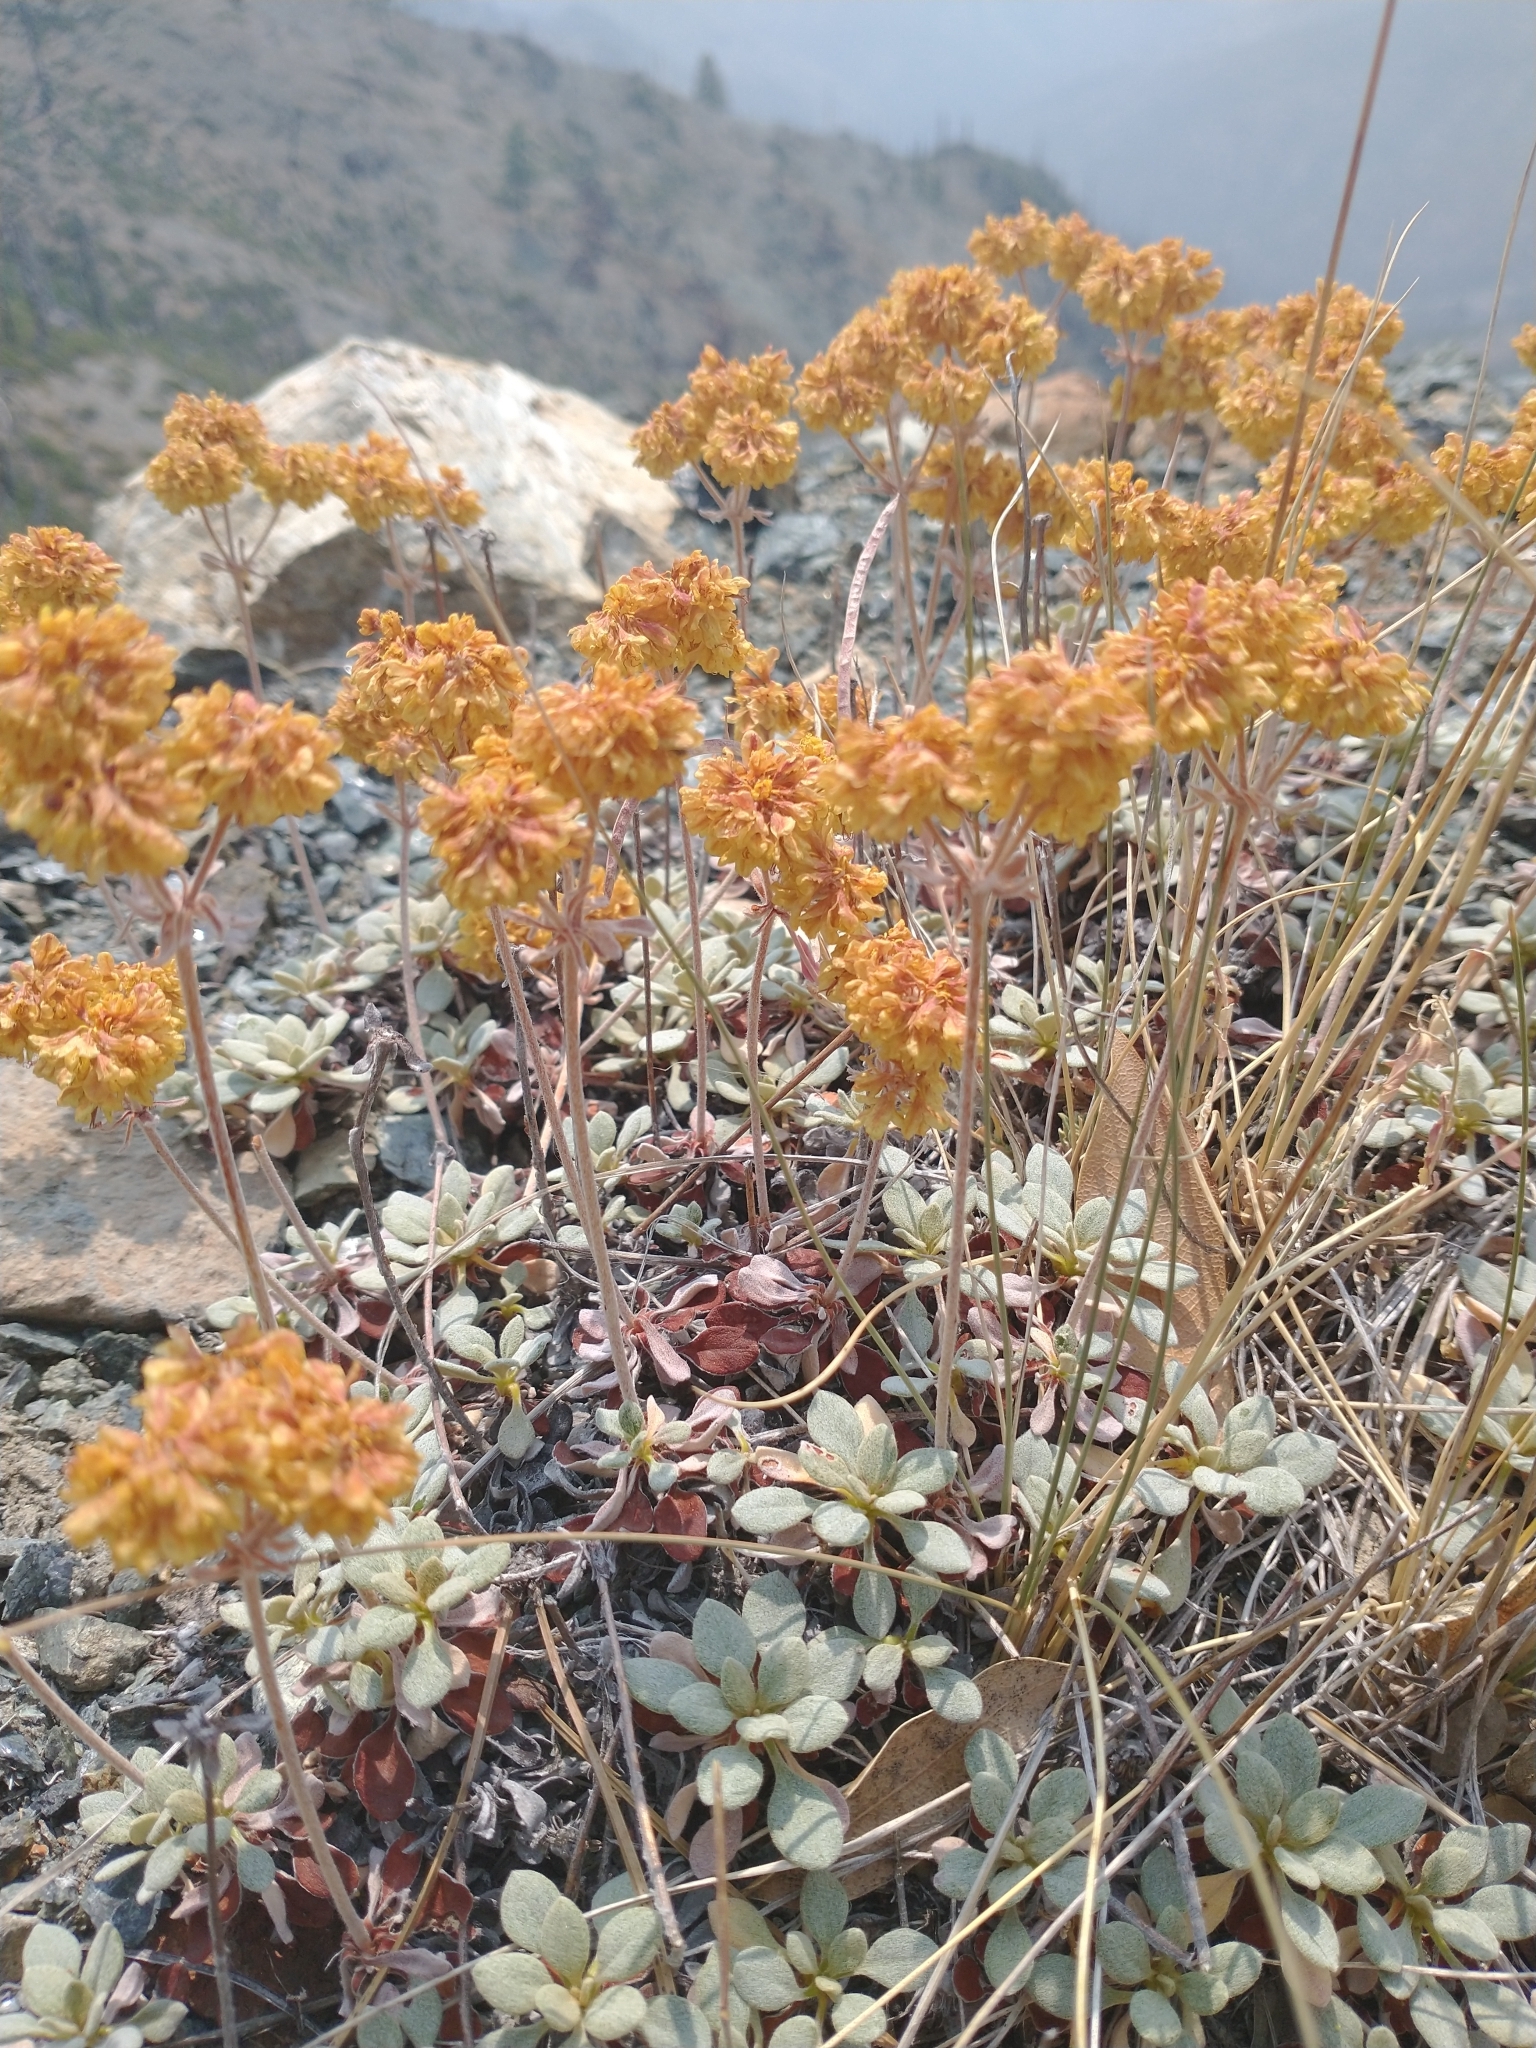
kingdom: Plantae
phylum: Tracheophyta
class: Magnoliopsida
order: Caryophyllales
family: Polygonaceae
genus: Eriogonum
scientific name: Eriogonum ternatum
